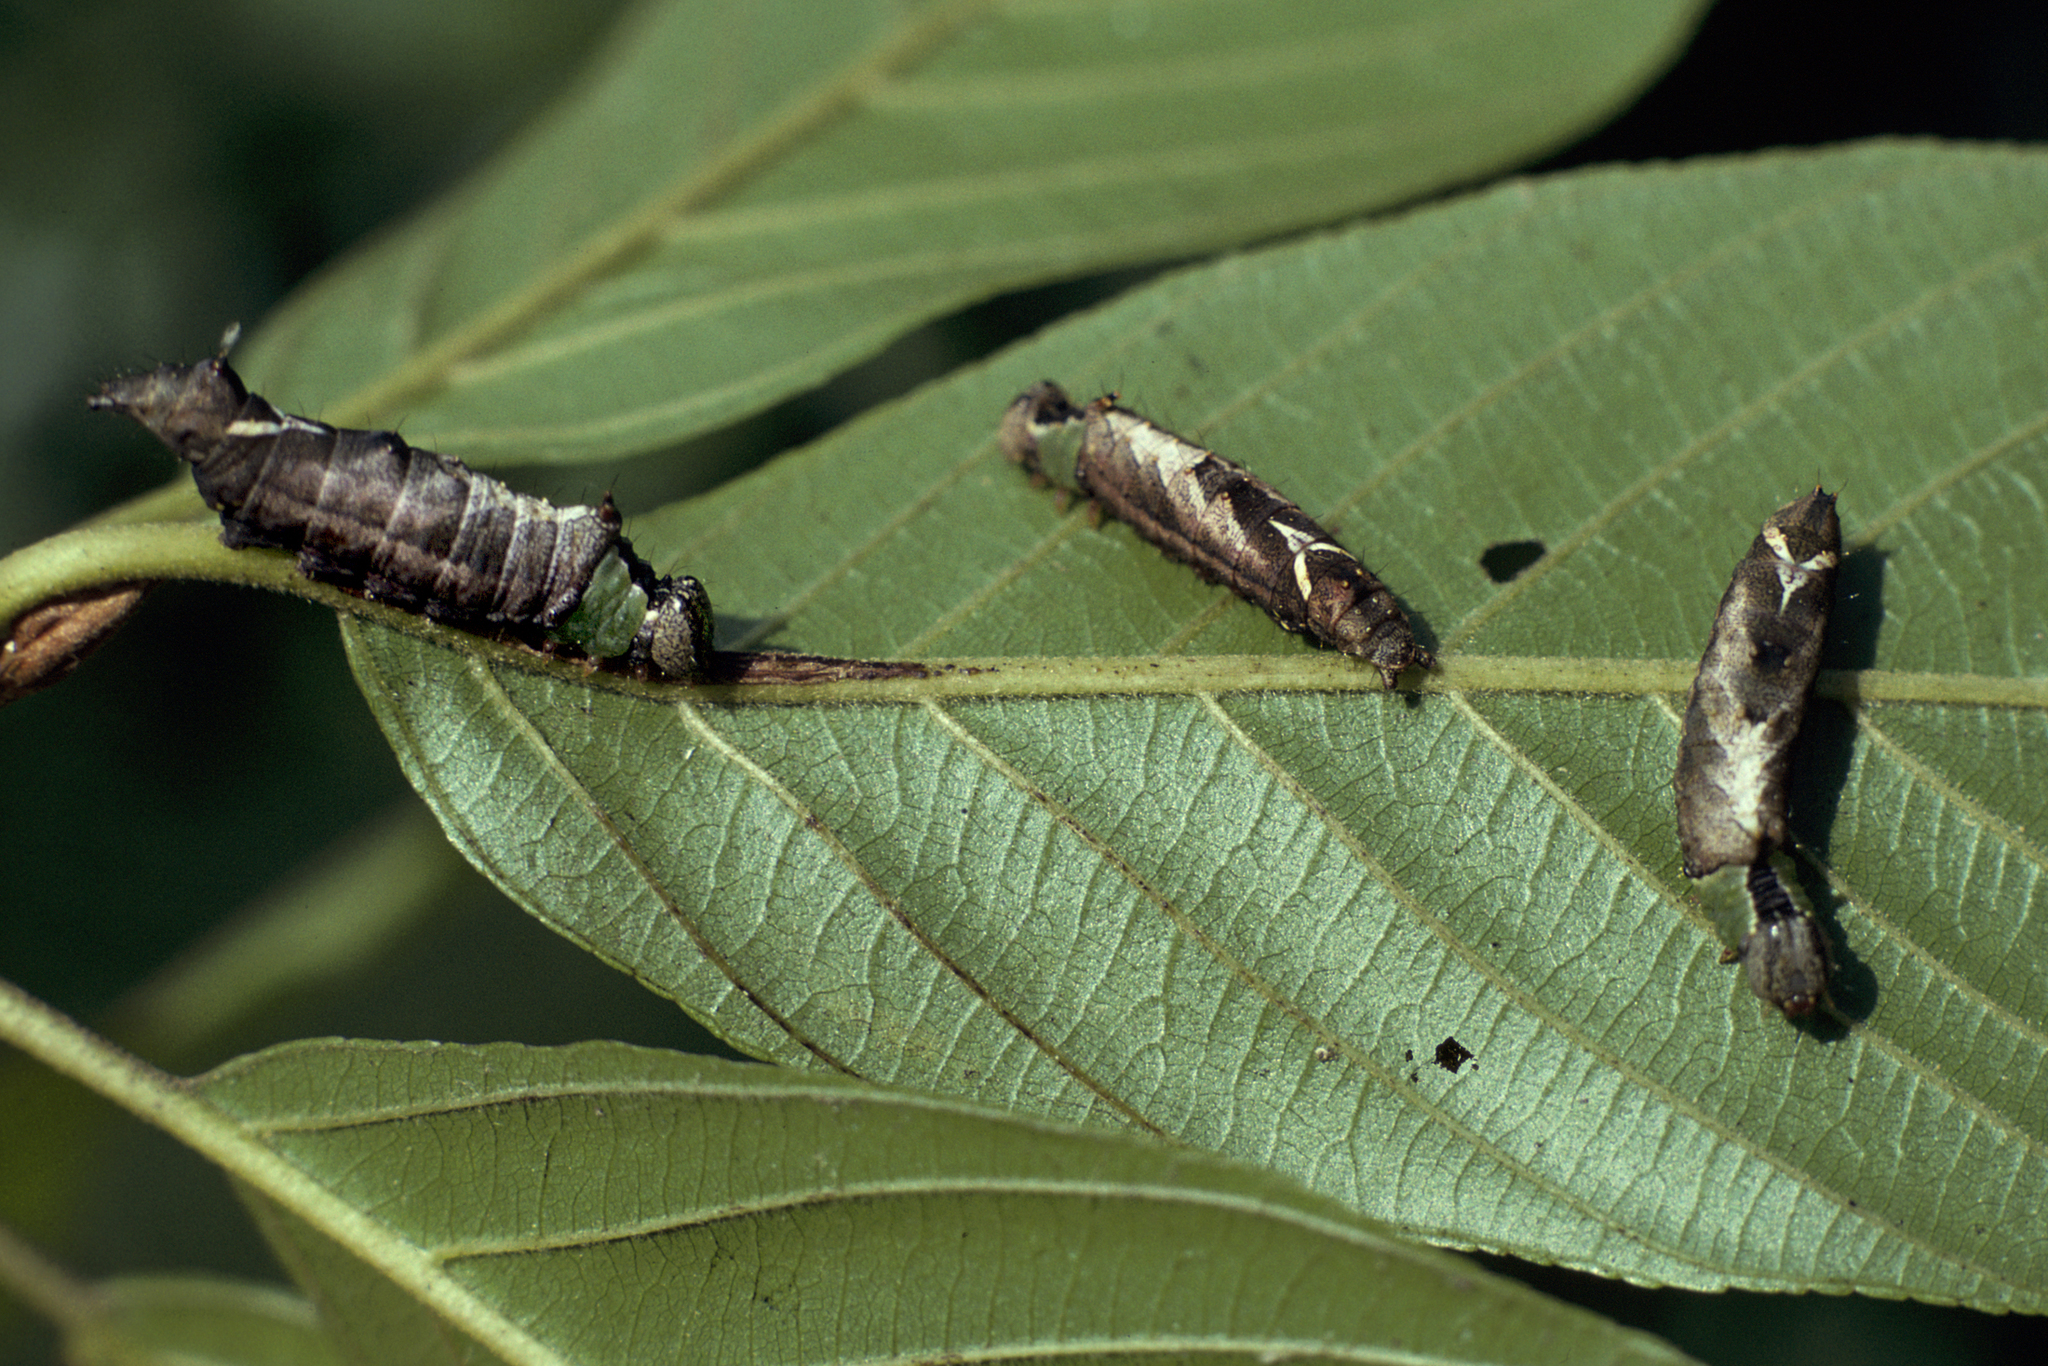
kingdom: Animalia
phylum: Arthropoda
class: Insecta
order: Lepidoptera
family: Notodontidae
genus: Schizura
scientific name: Schizura
